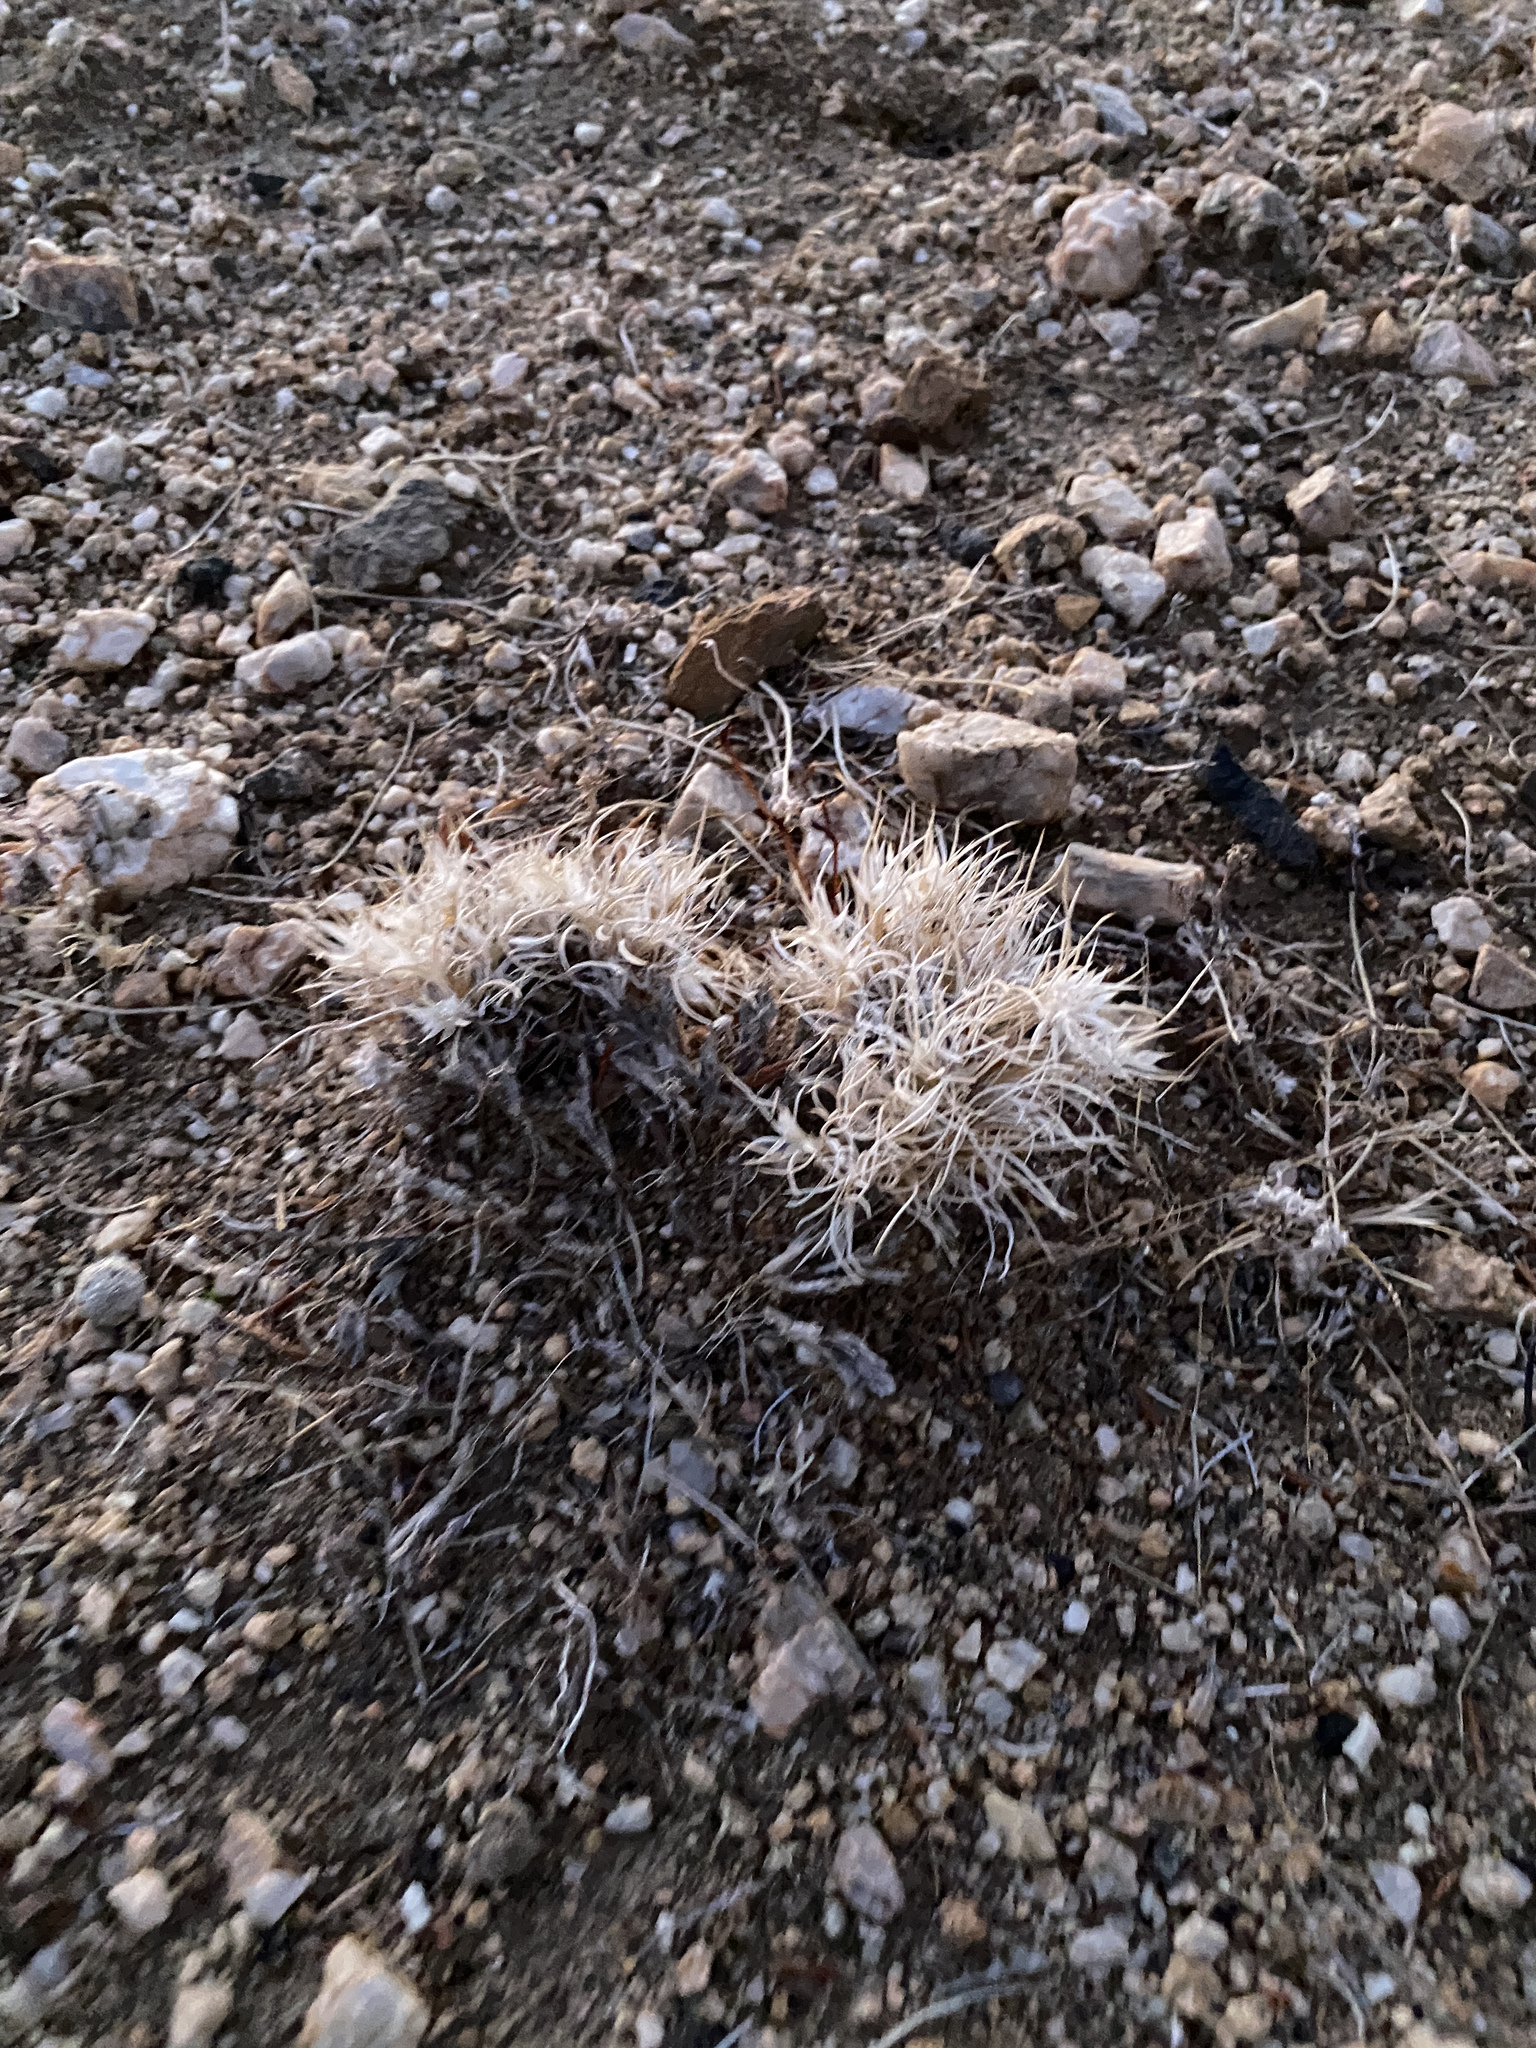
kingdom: Plantae
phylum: Tracheophyta
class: Liliopsida
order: Poales
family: Poaceae
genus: Dasyochloa
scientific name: Dasyochloa pulchella
